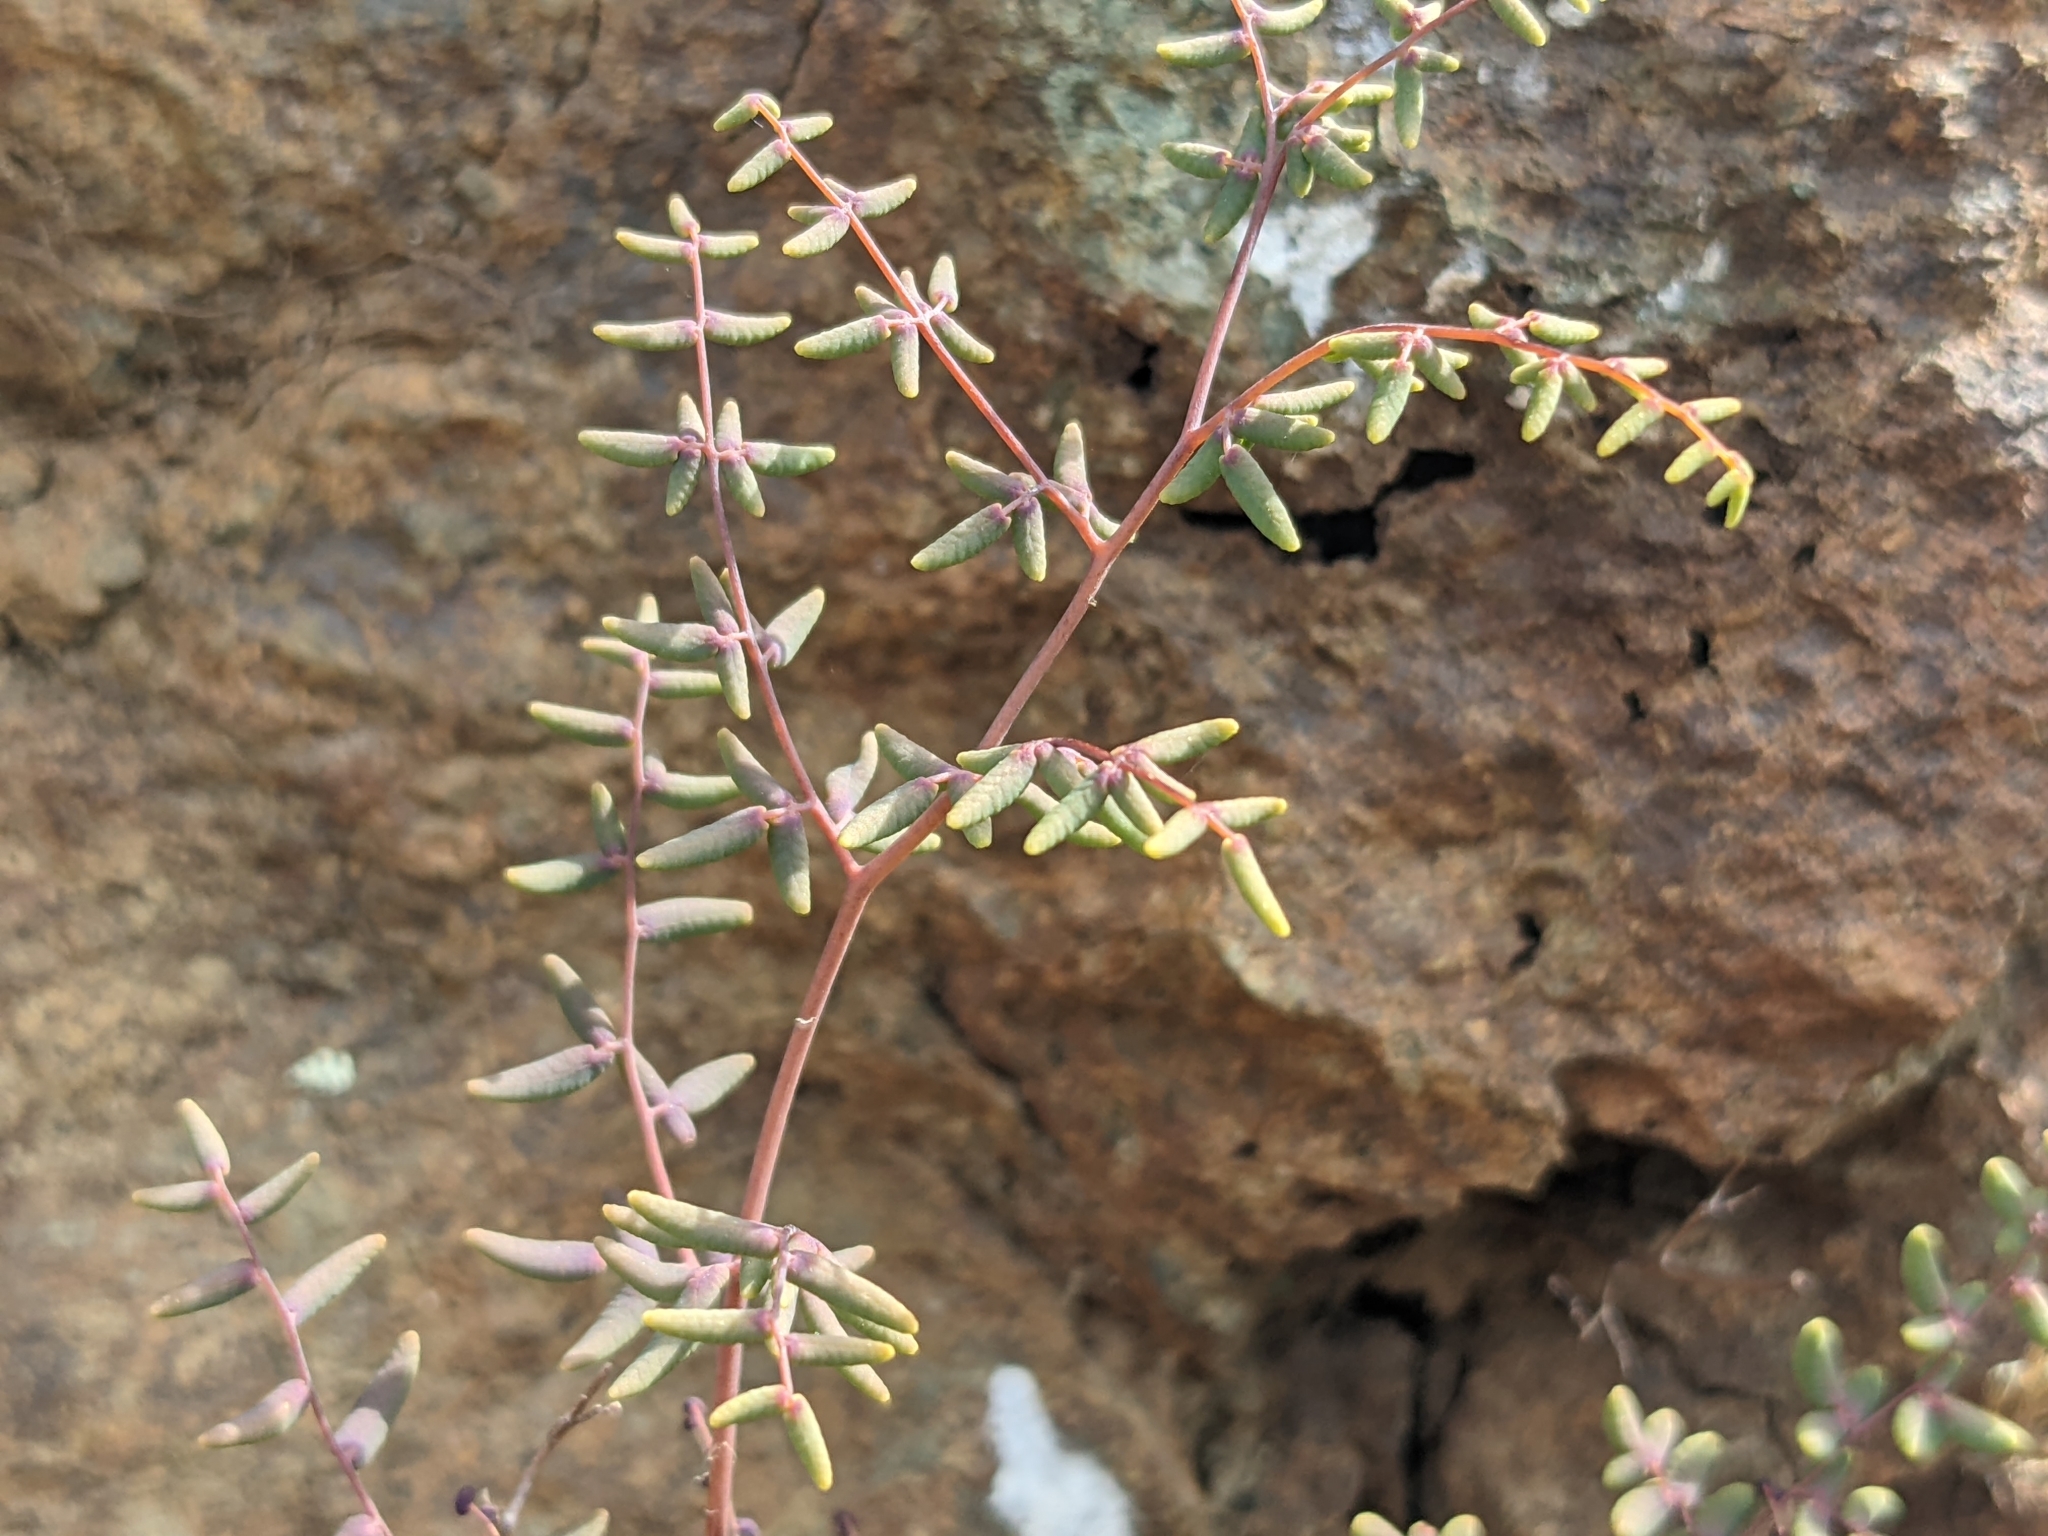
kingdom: Plantae
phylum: Tracheophyta
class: Polypodiopsida
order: Polypodiales
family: Pteridaceae
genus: Pellaea
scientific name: Pellaea andromedifolia
